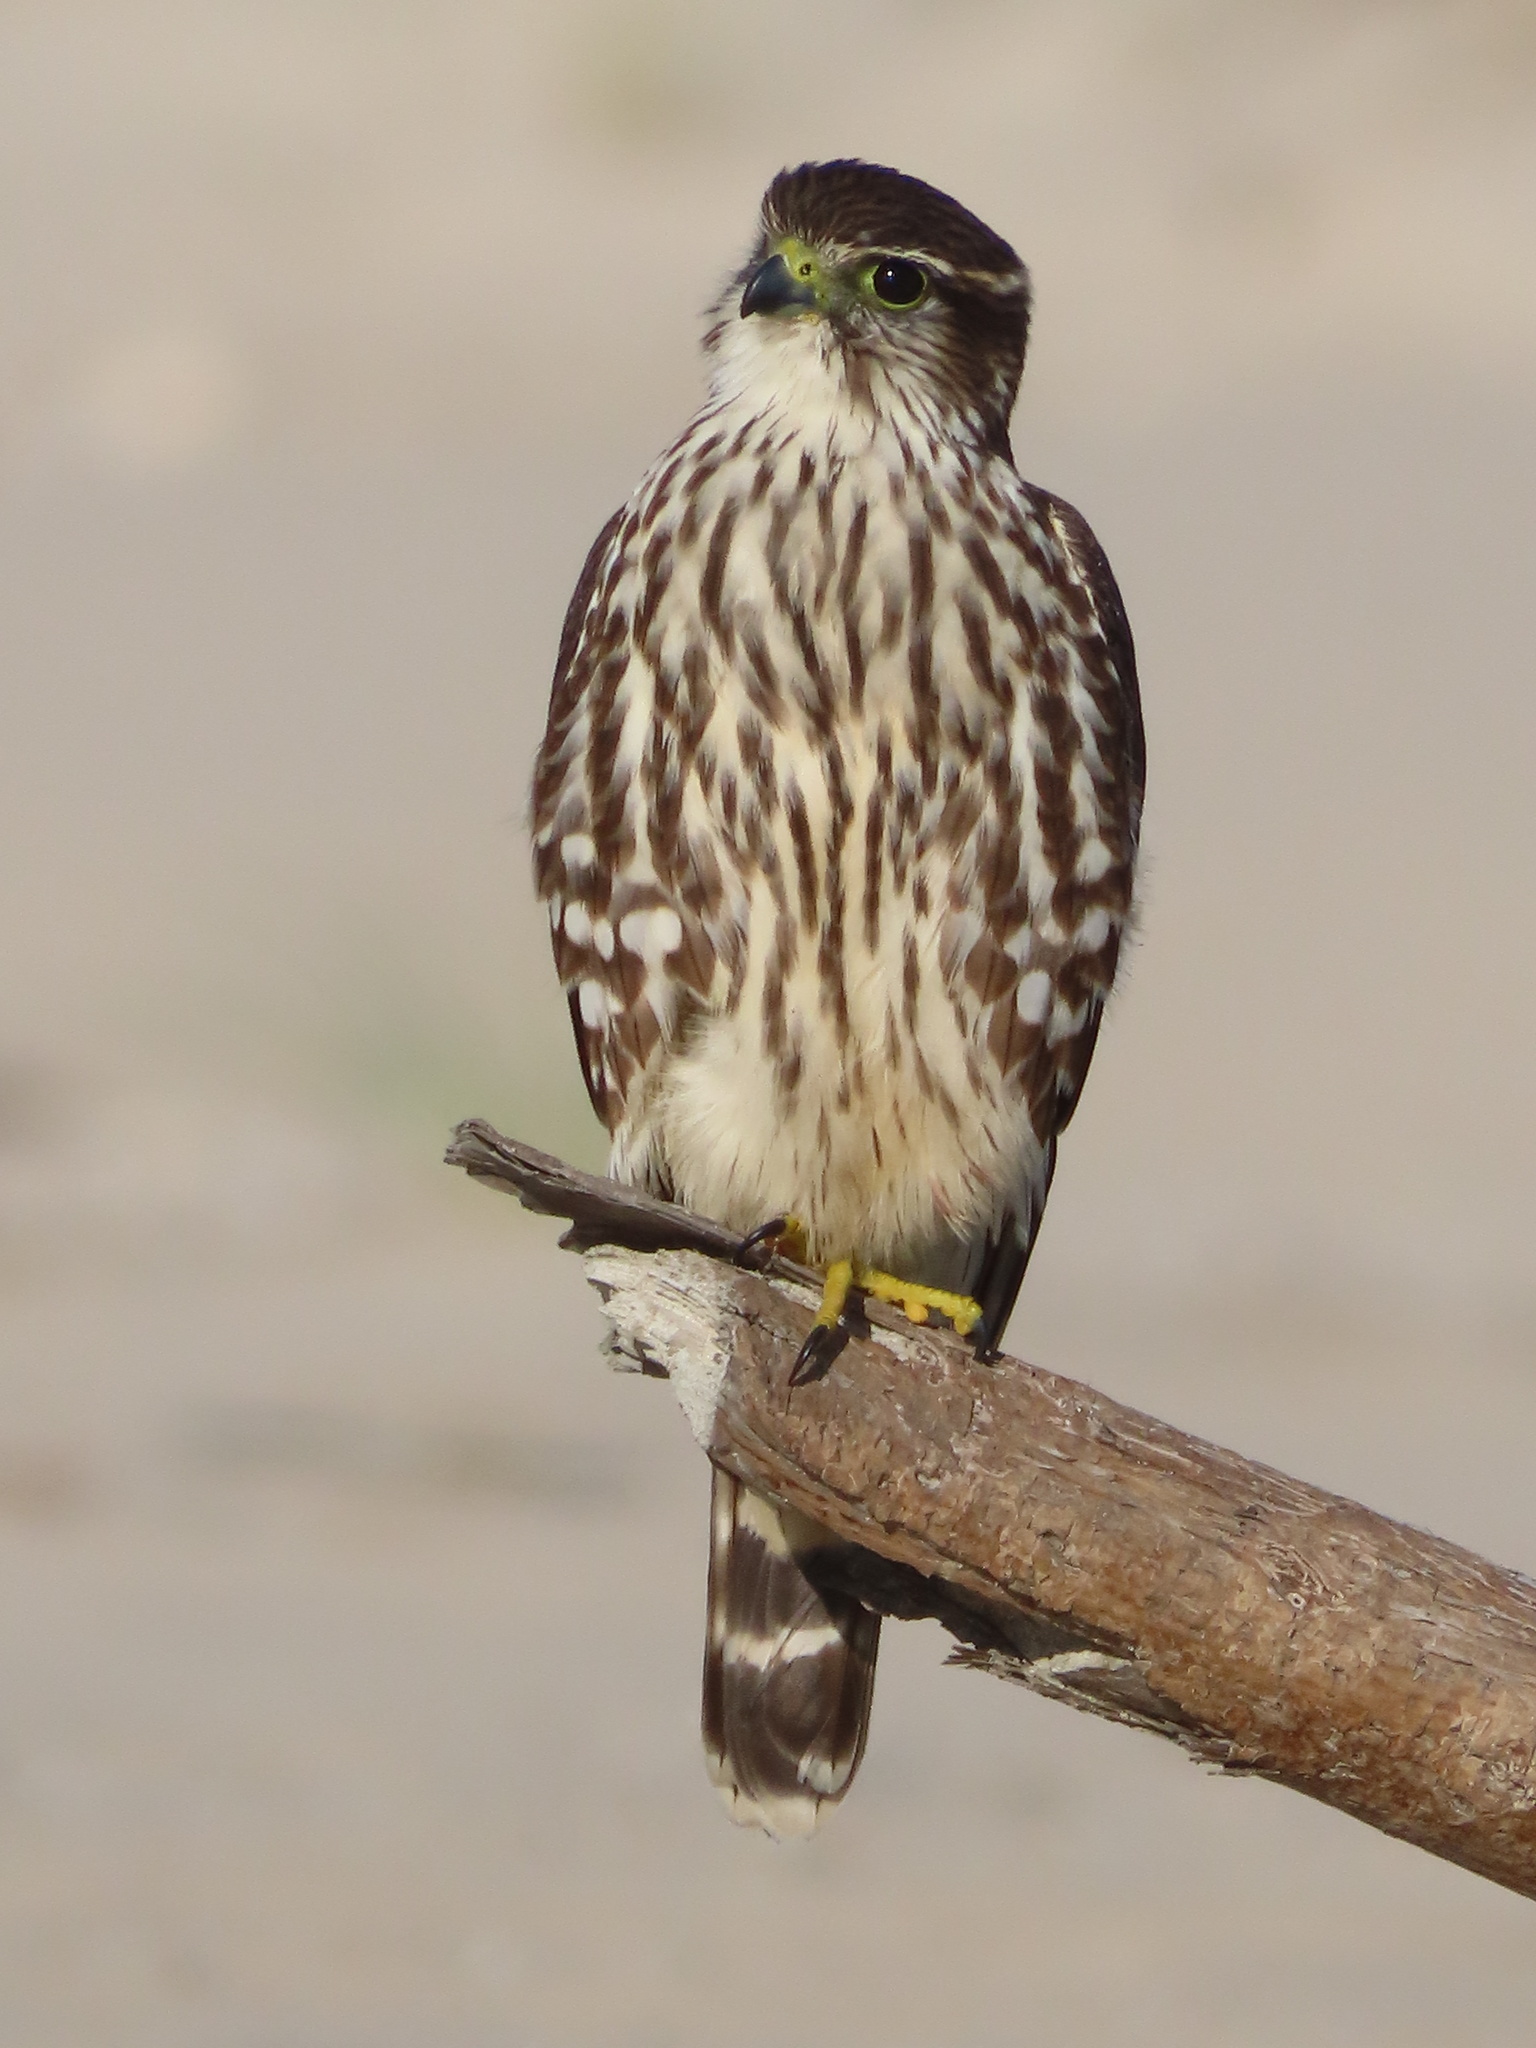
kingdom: Animalia
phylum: Chordata
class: Aves
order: Falconiformes
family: Falconidae
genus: Falco
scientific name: Falco columbarius
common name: Merlin
